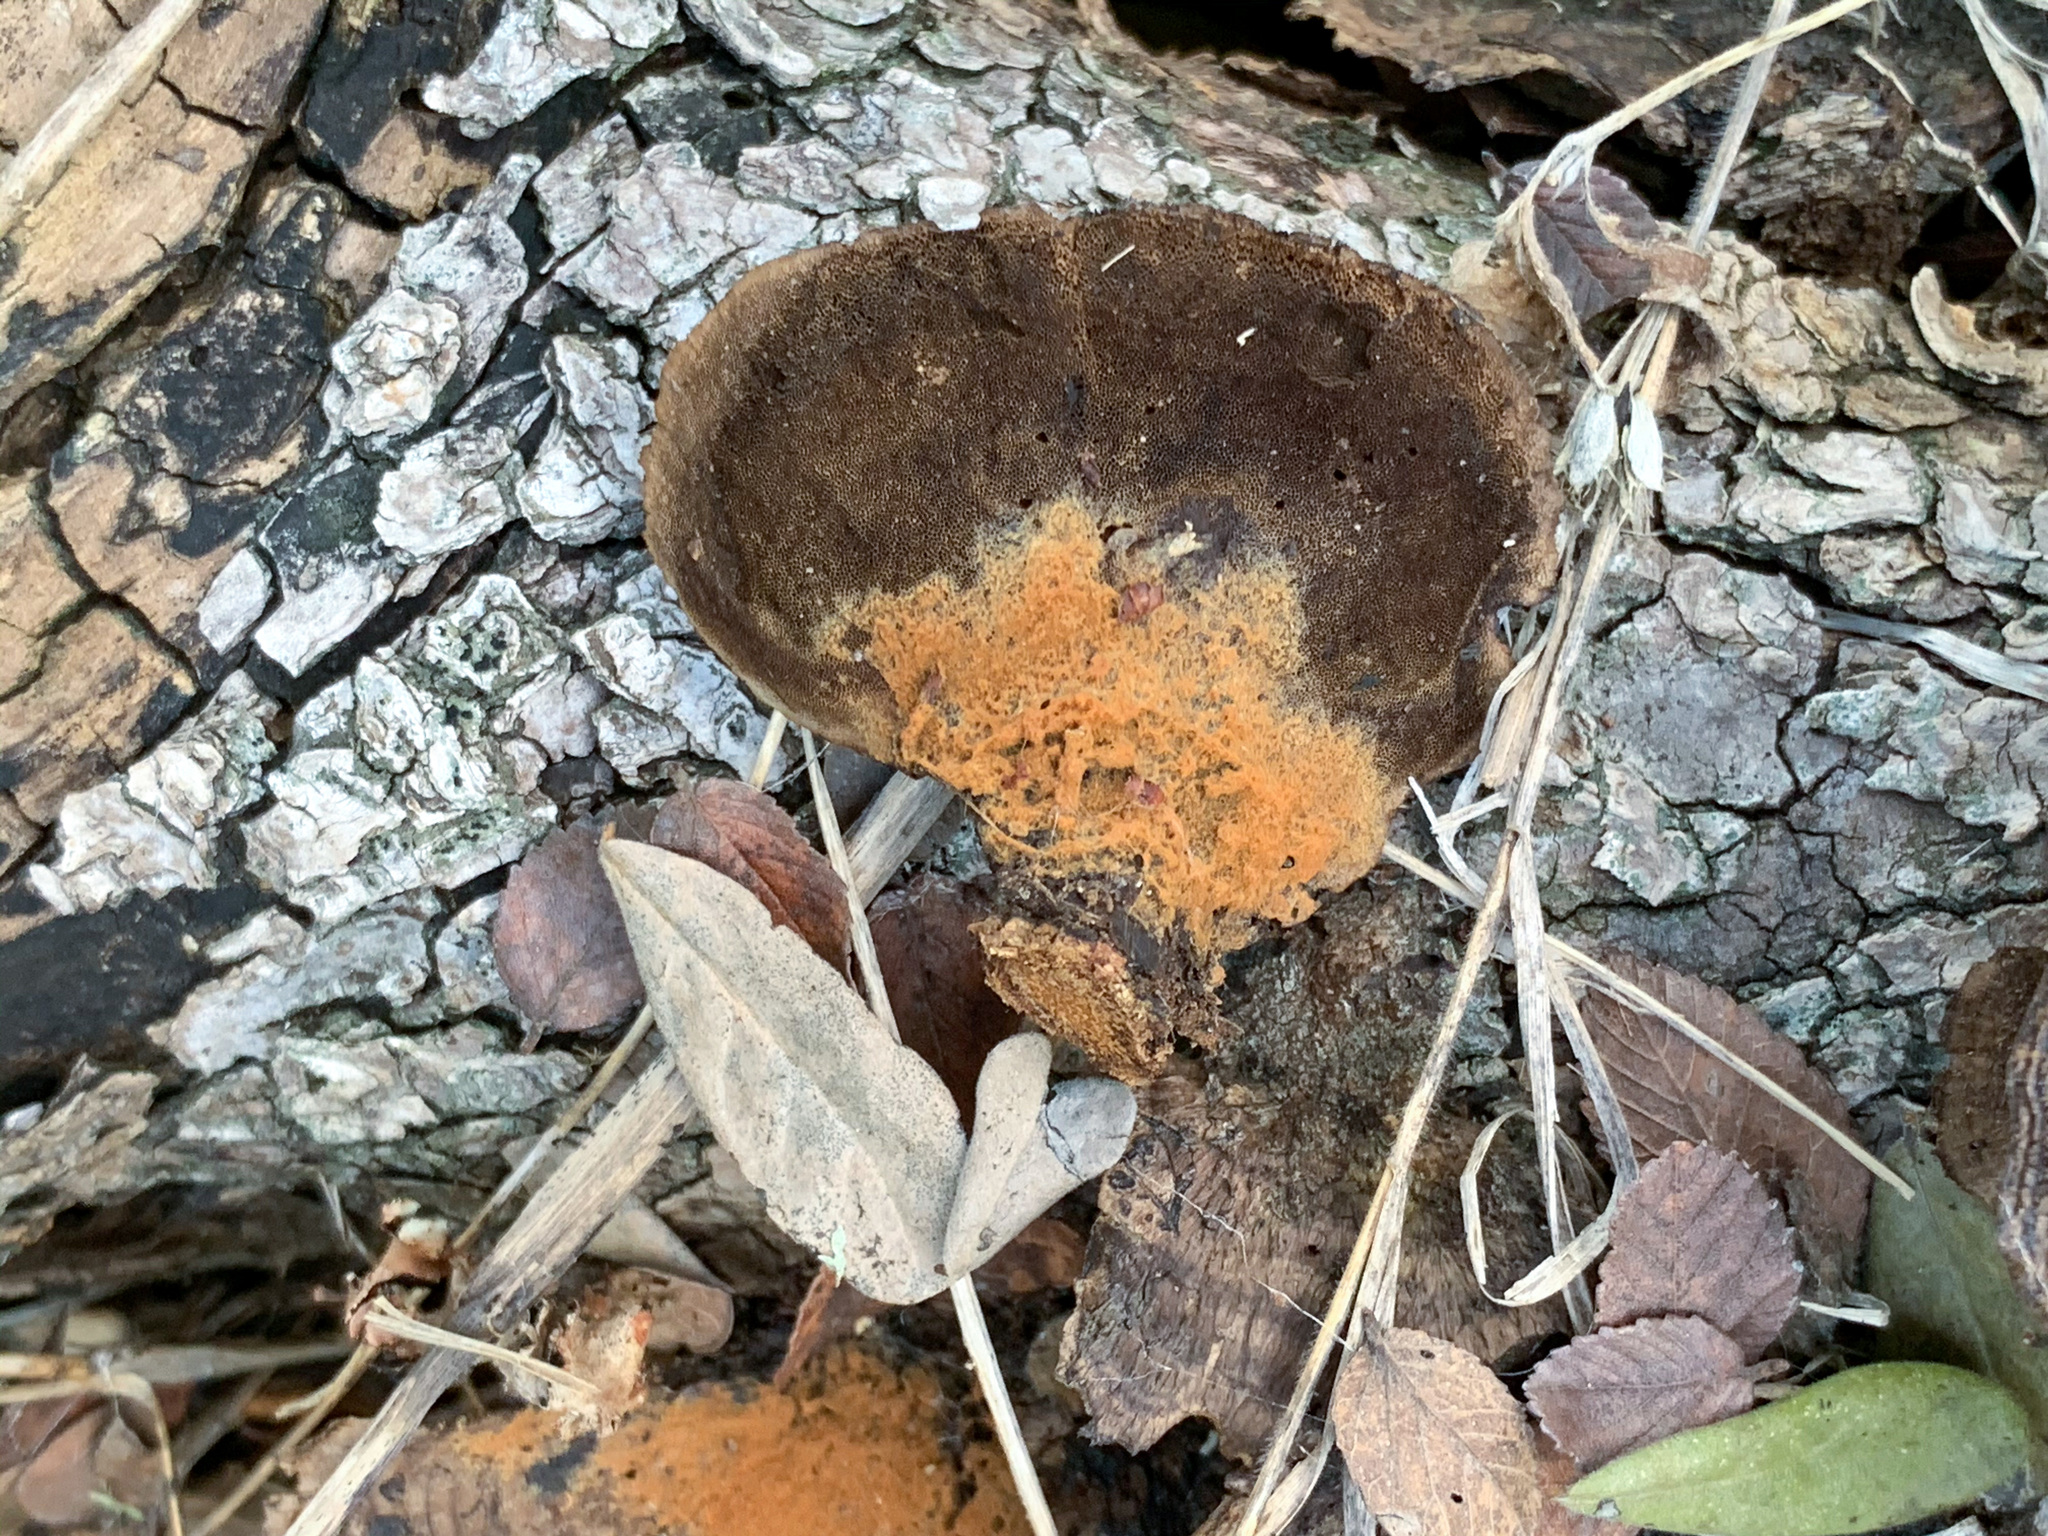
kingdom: Fungi
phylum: Basidiomycota
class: Agaricomycetes
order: Polyporales
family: Cerrenaceae
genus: Cerrena
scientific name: Cerrena hydnoides
